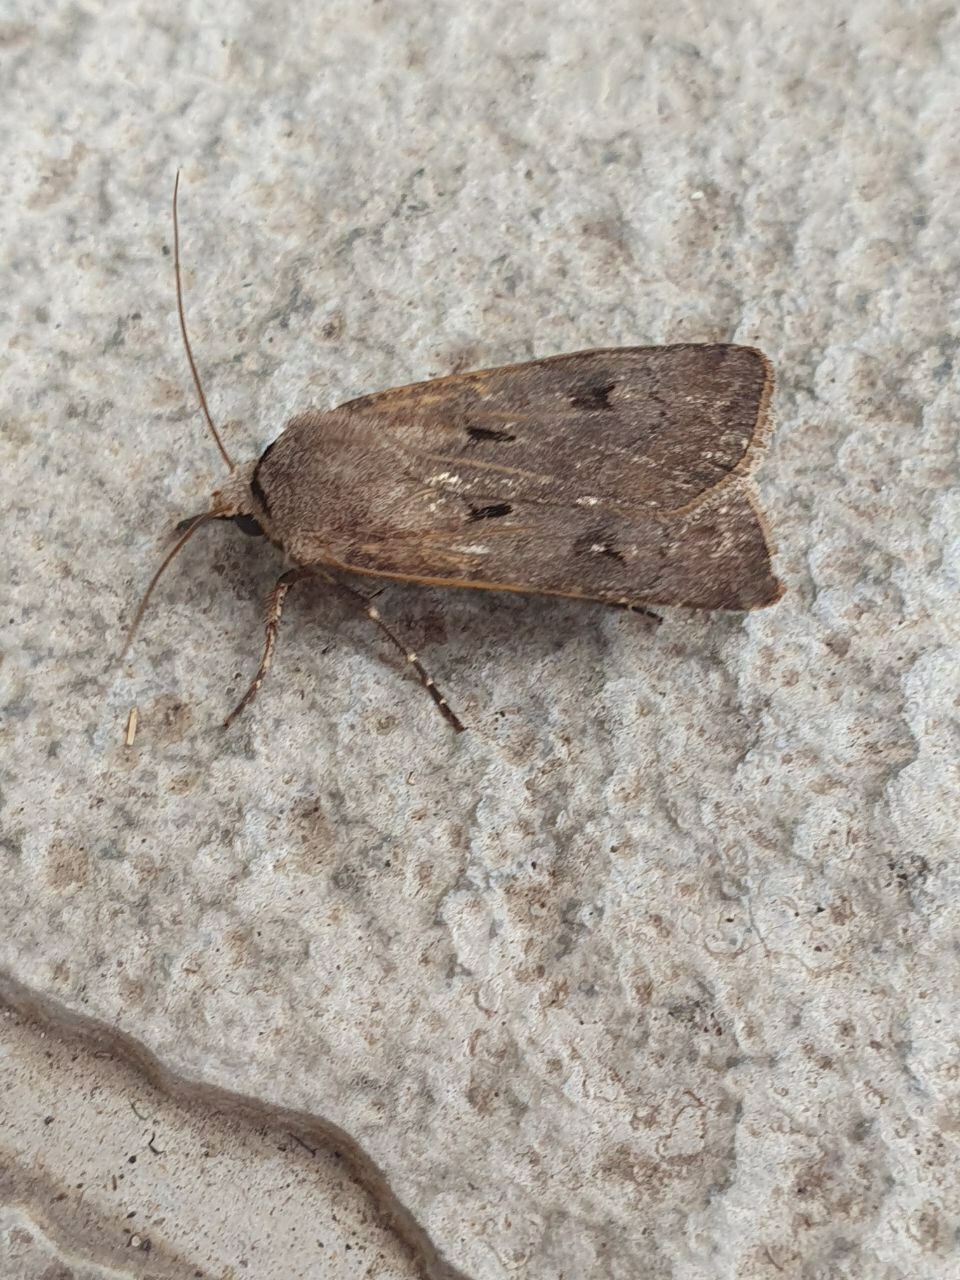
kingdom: Animalia
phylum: Arthropoda
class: Insecta
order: Lepidoptera
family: Noctuidae
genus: Agrotis
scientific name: Agrotis exclamationis
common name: Heart and dart
